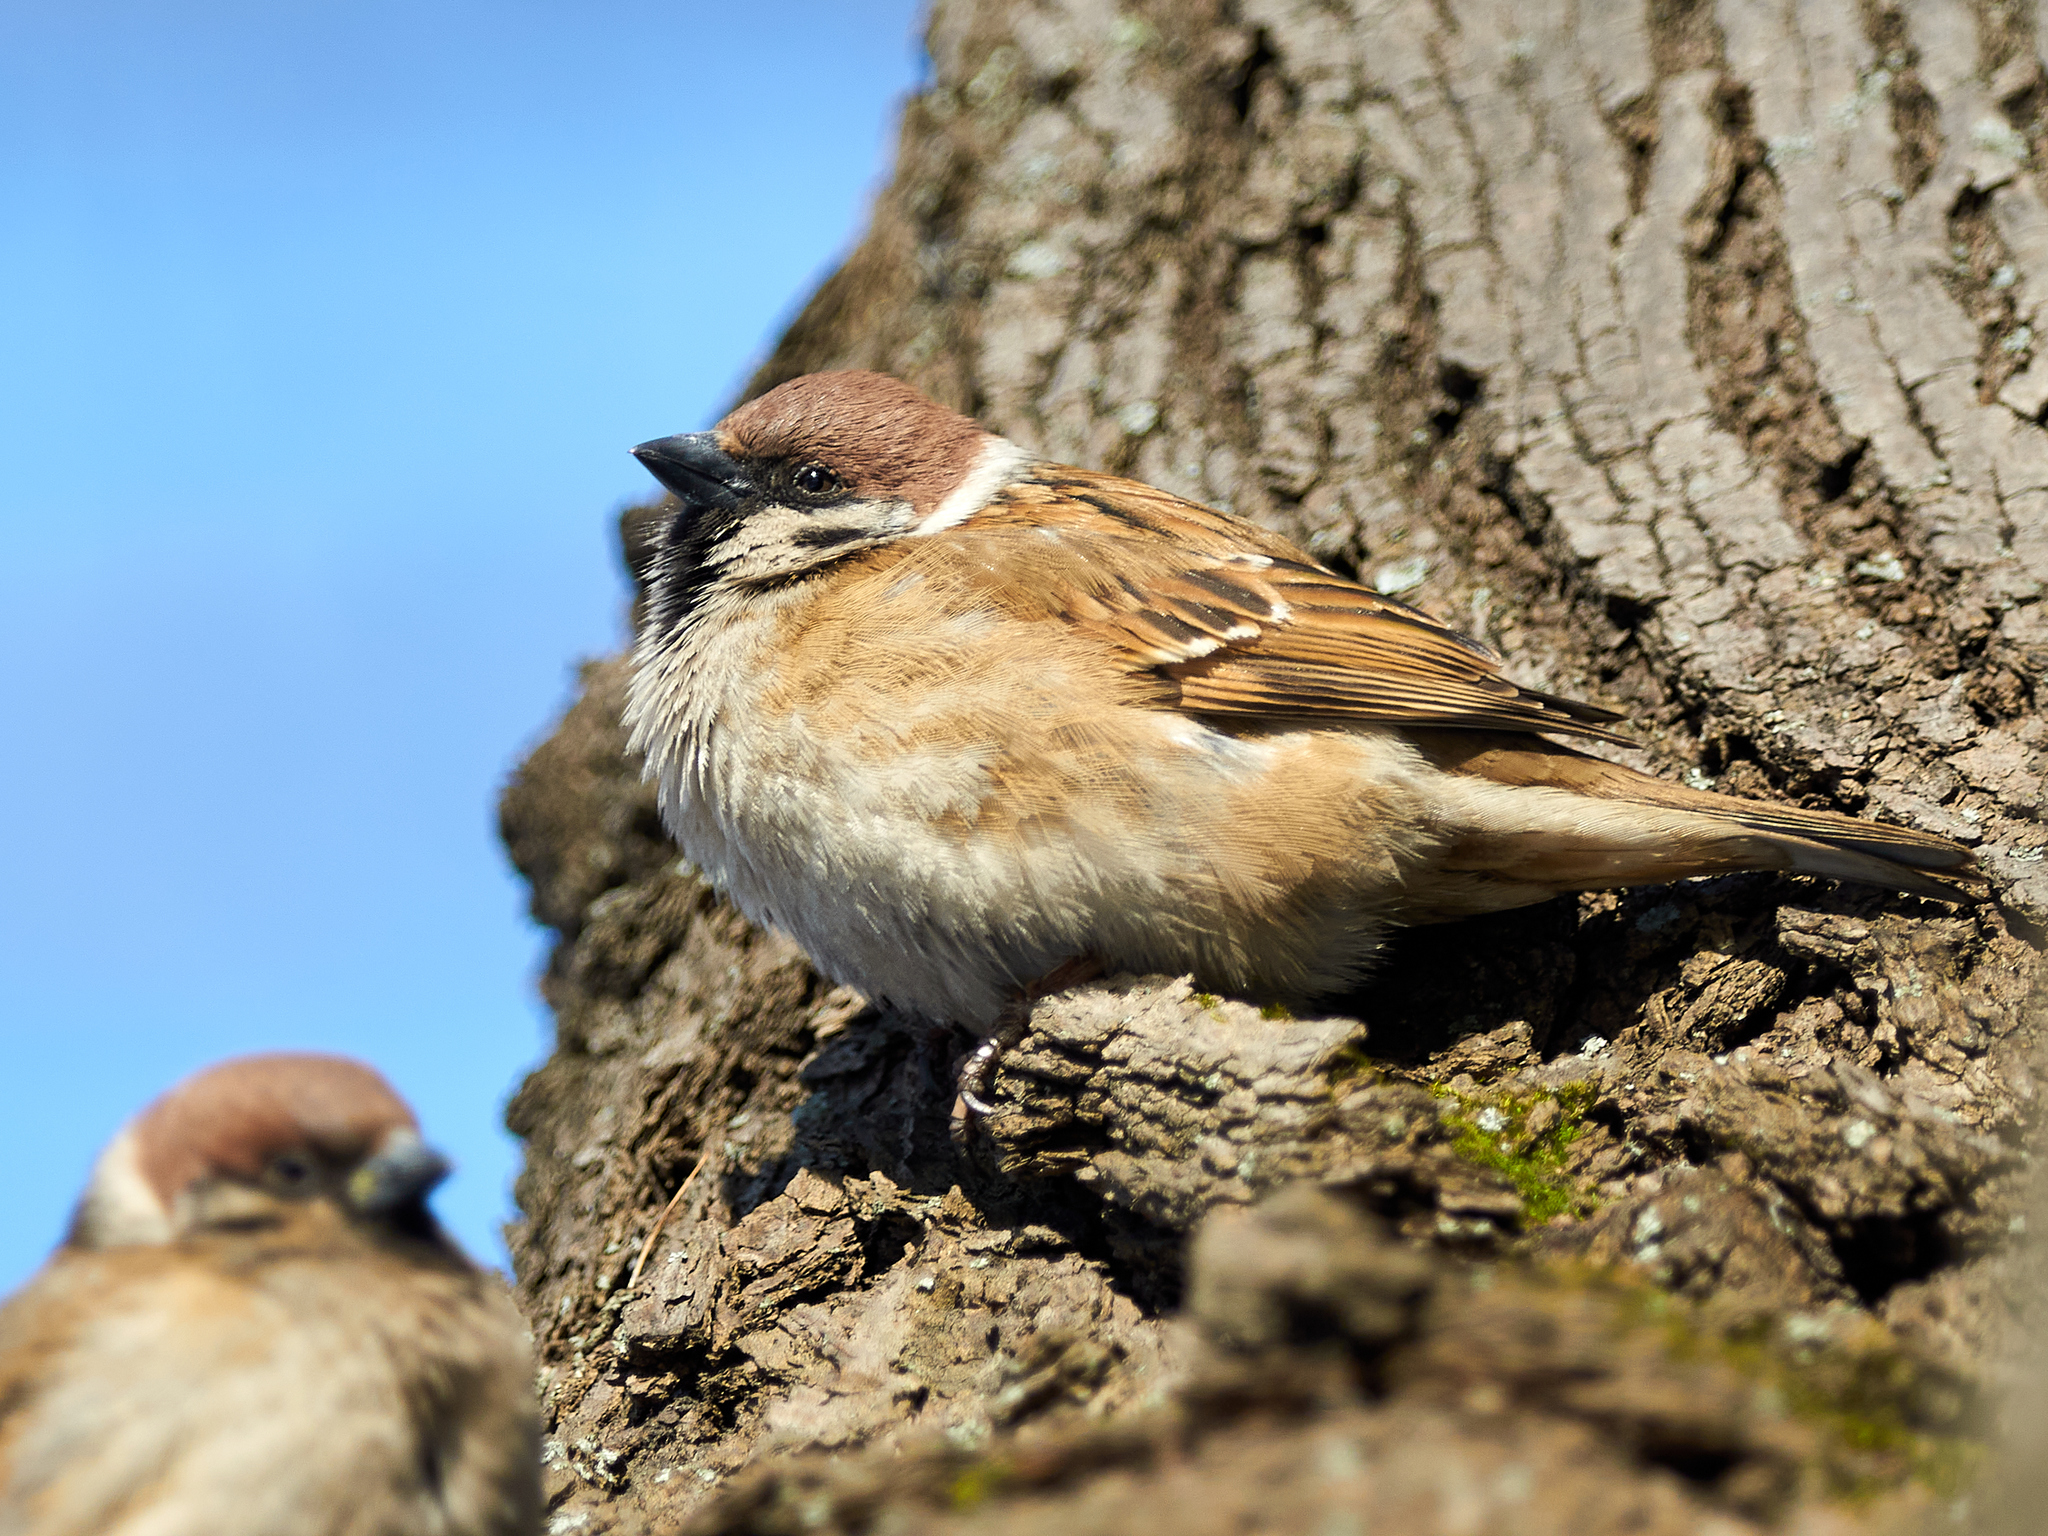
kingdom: Animalia
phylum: Chordata
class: Aves
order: Passeriformes
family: Passeridae
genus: Passer
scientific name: Passer montanus
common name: Eurasian tree sparrow
